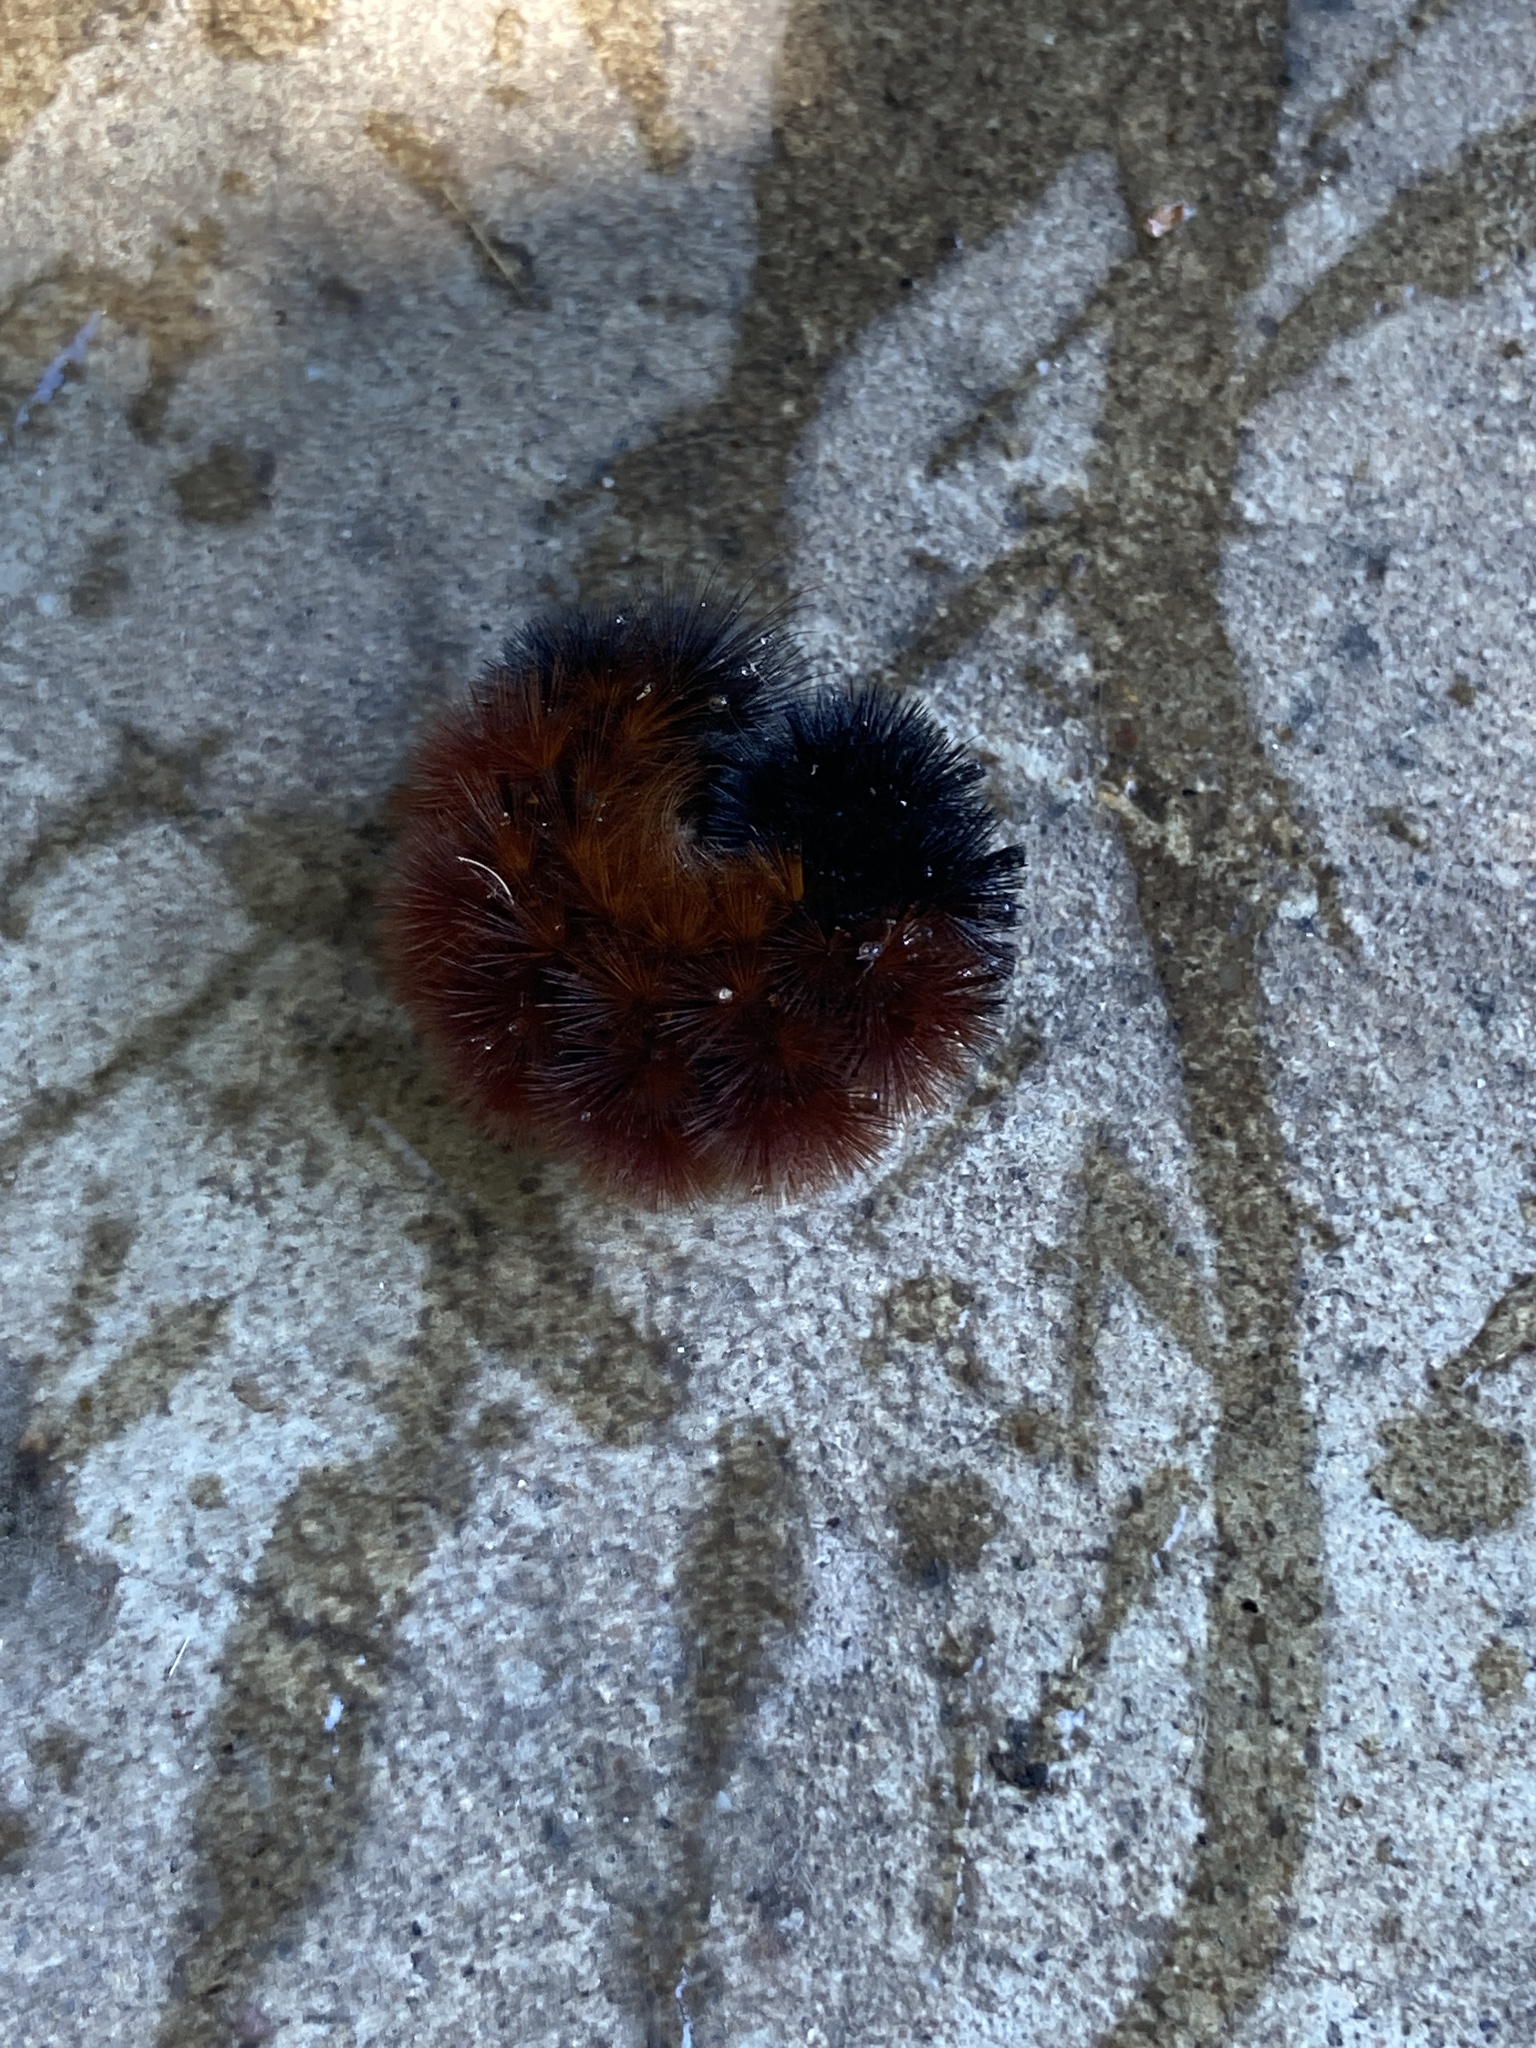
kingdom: Animalia
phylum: Arthropoda
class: Insecta
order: Lepidoptera
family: Erebidae
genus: Pyrrharctia
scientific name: Pyrrharctia isabella
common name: Isabella tiger moth
